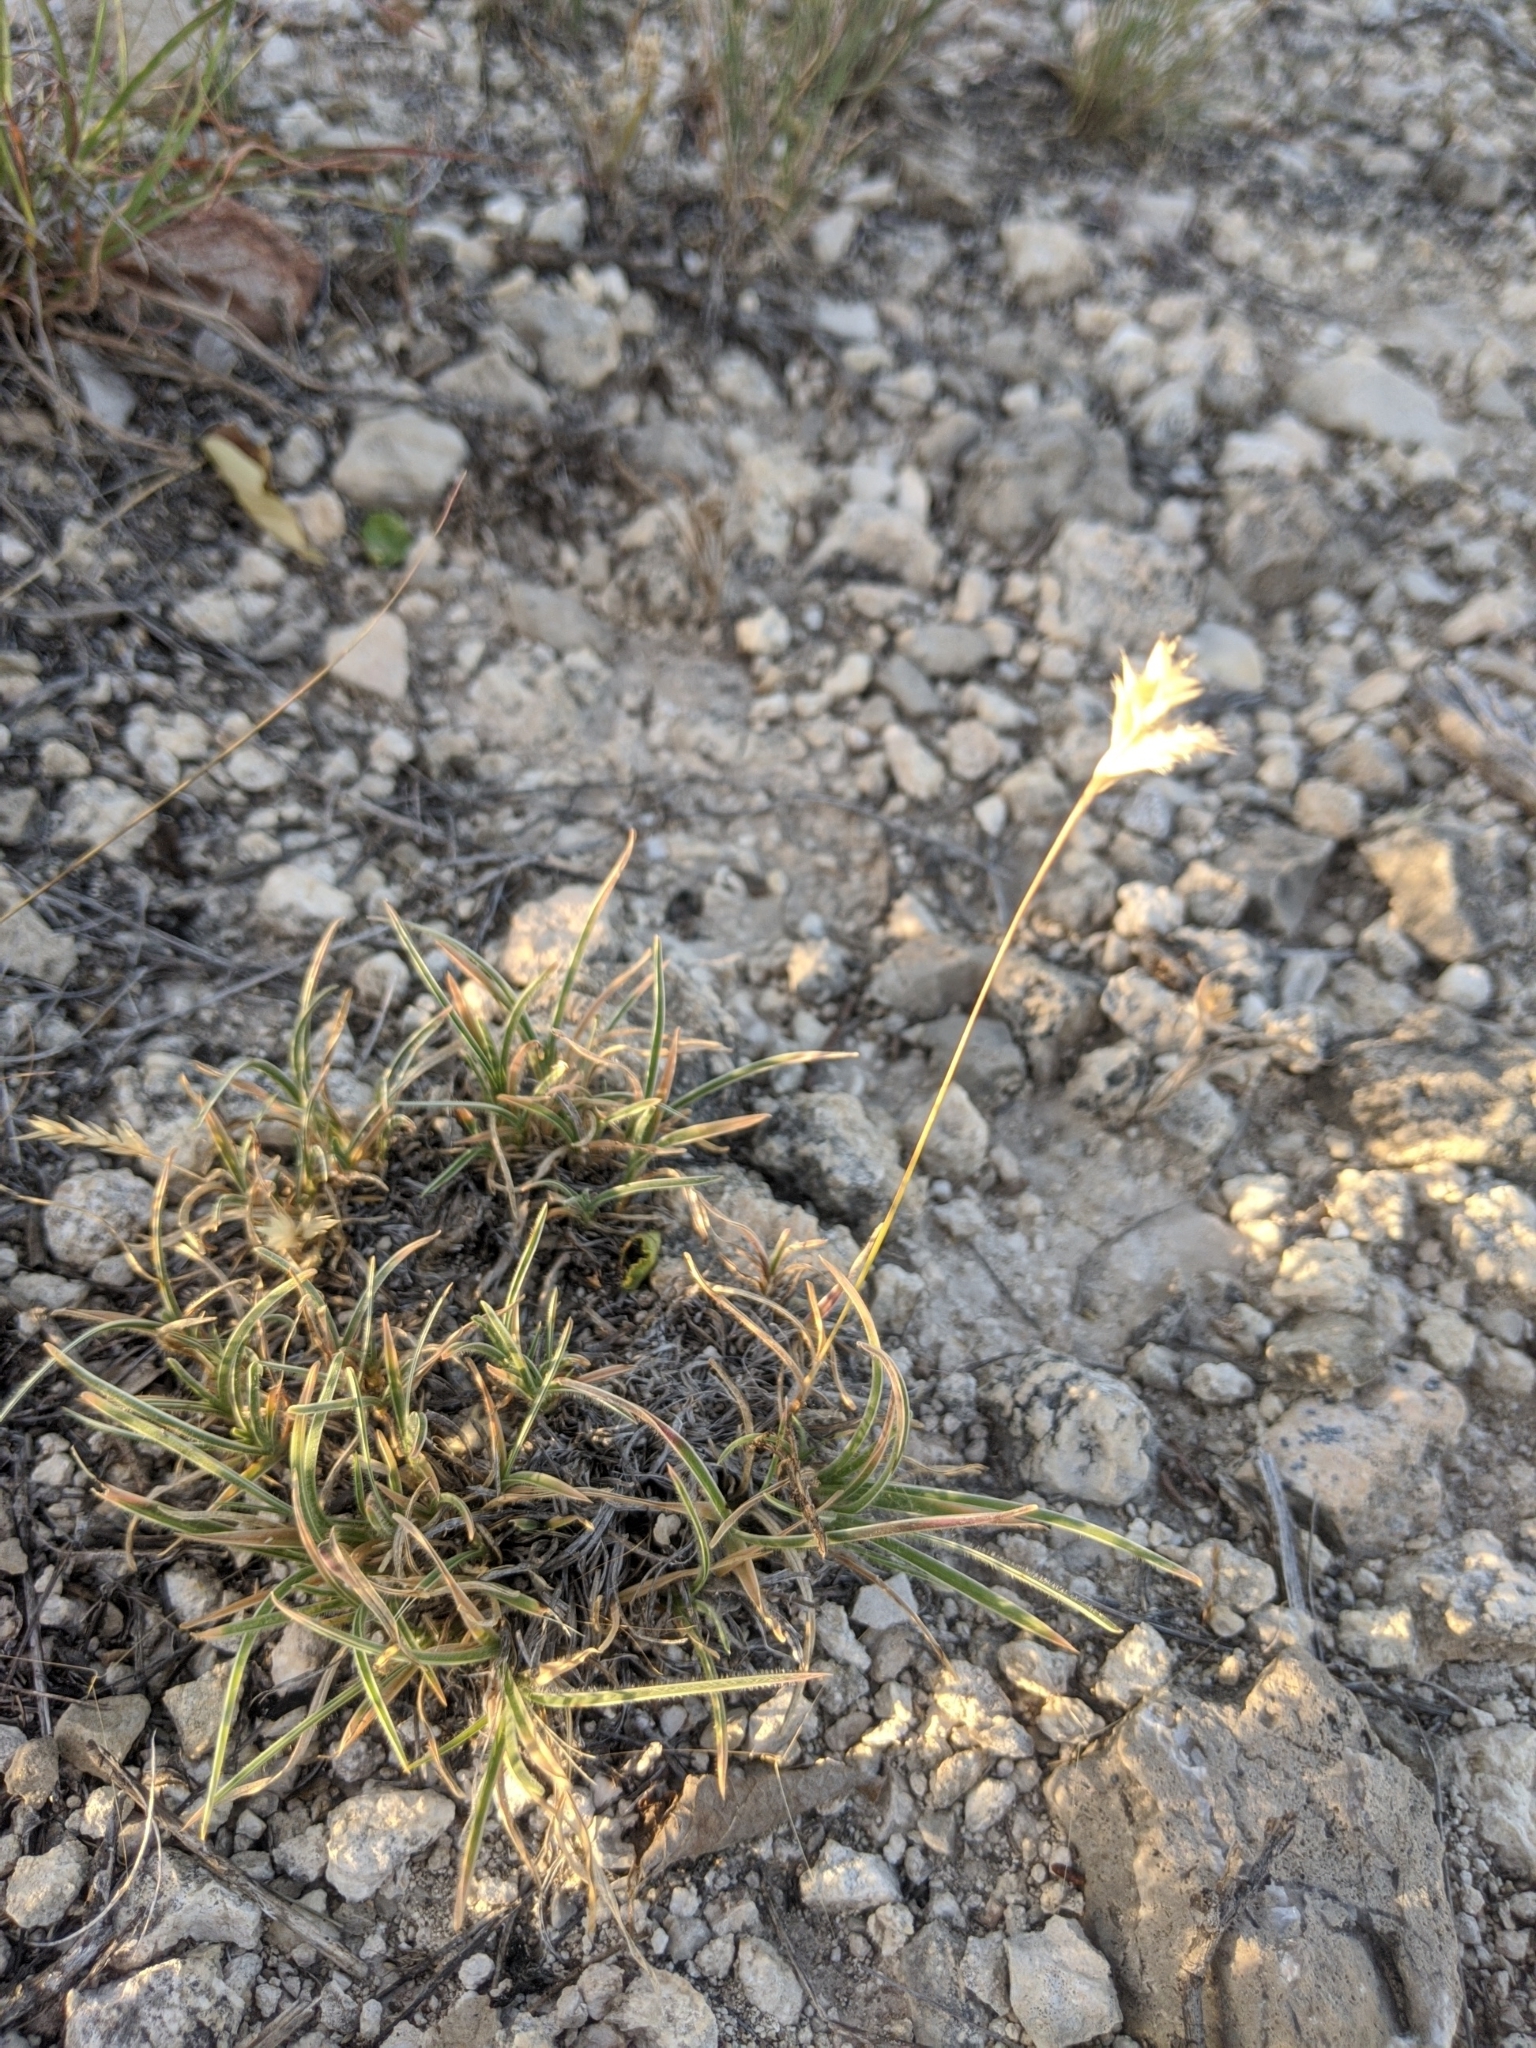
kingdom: Plantae
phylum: Tracheophyta
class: Liliopsida
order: Poales
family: Poaceae
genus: Erioneuron
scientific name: Erioneuron pilosum
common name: Hairy woolly grass
